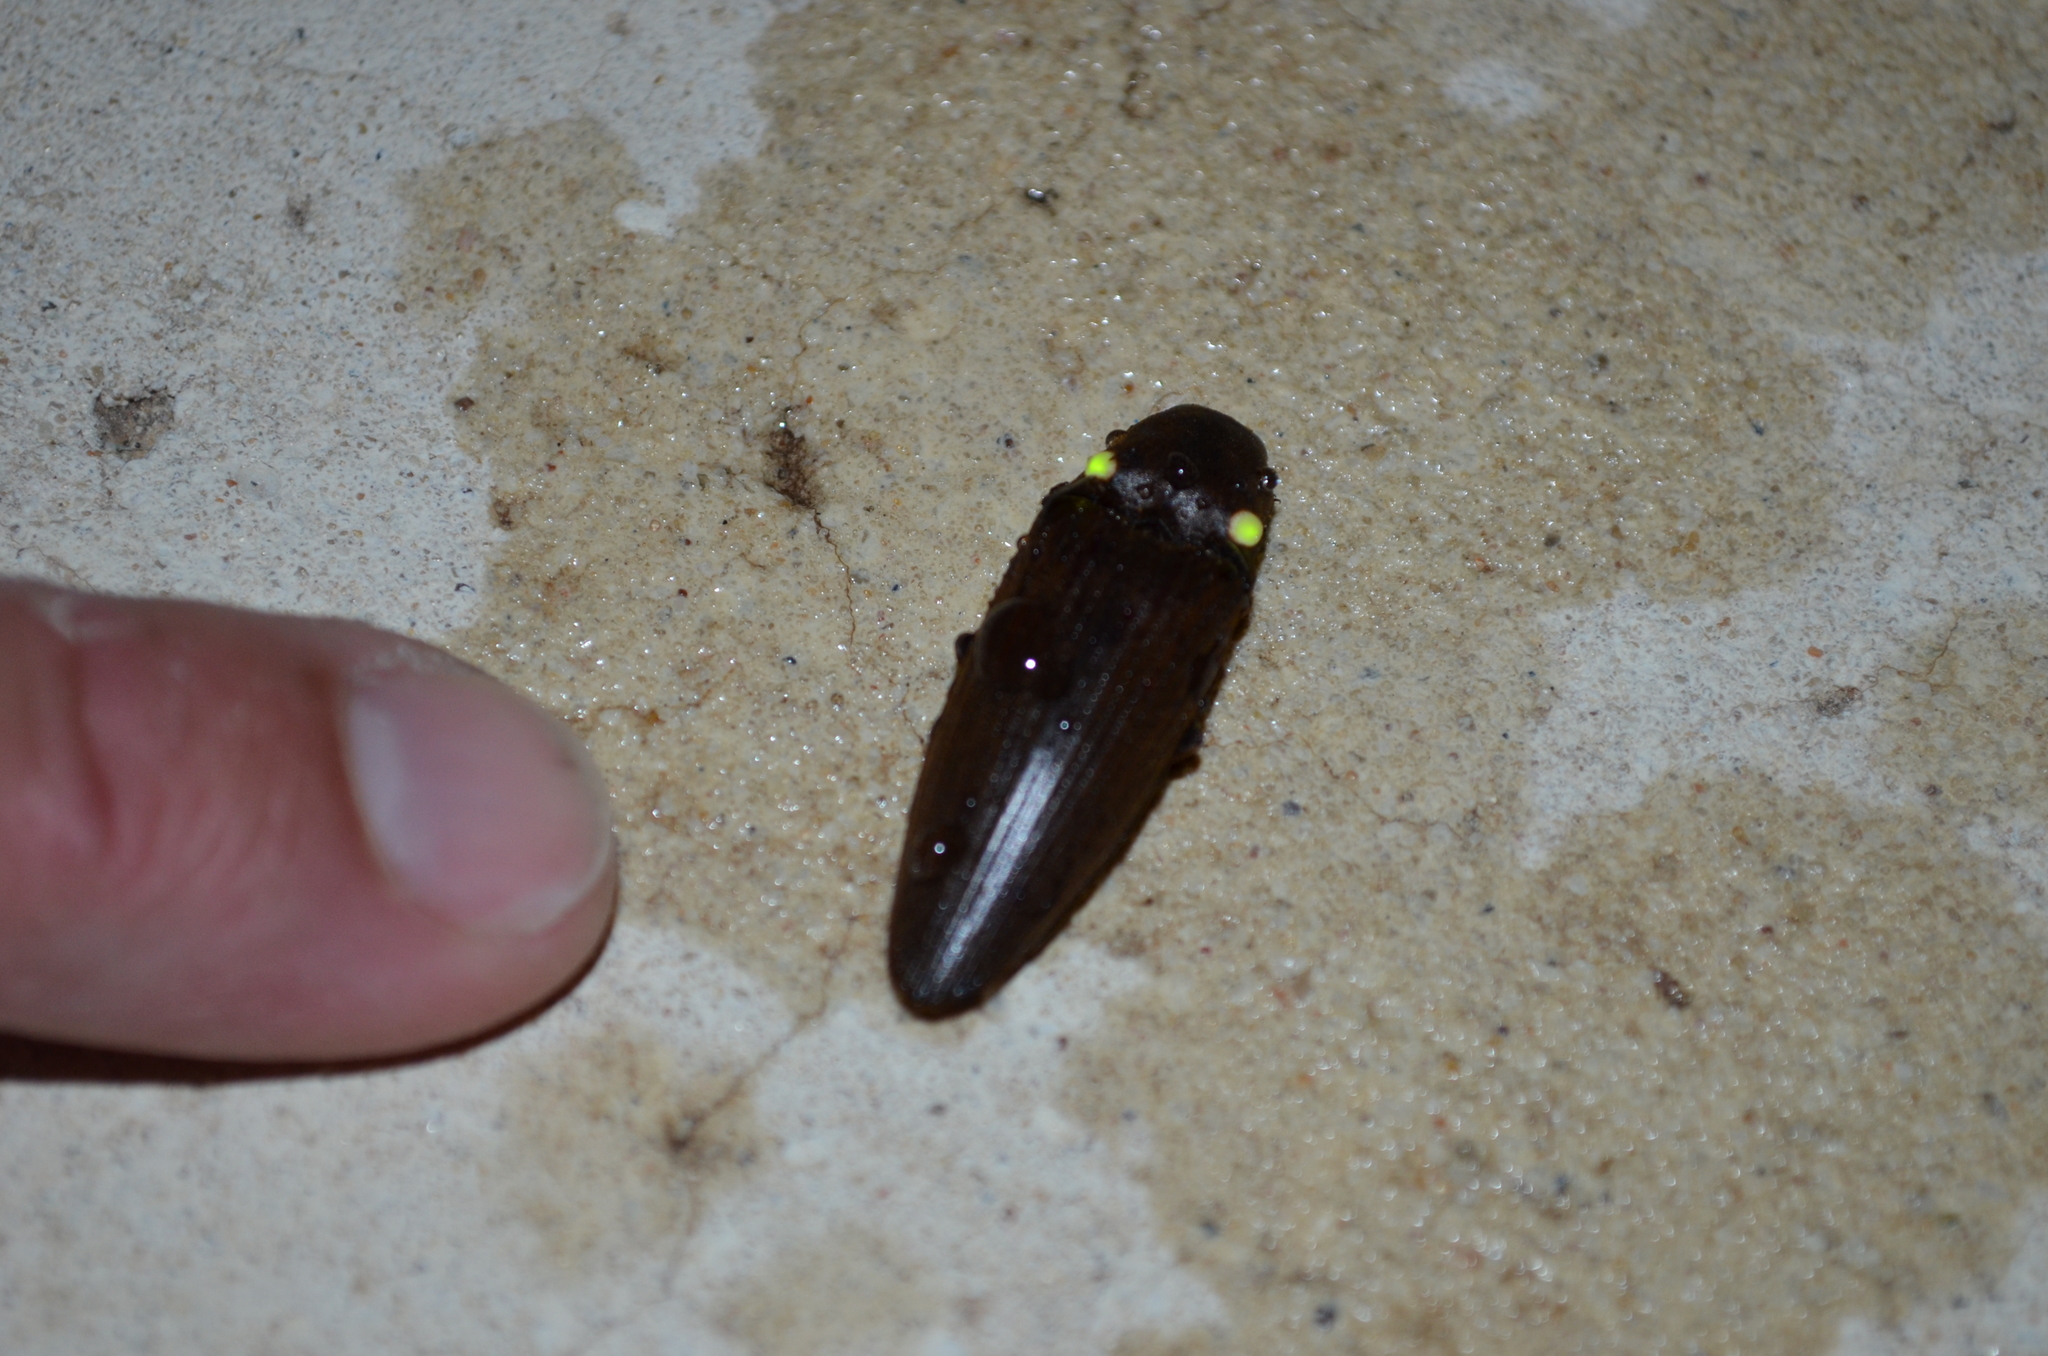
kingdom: Animalia
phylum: Arthropoda
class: Insecta
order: Coleoptera
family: Elateridae
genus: Pyrophorus
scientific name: Pyrophorus
